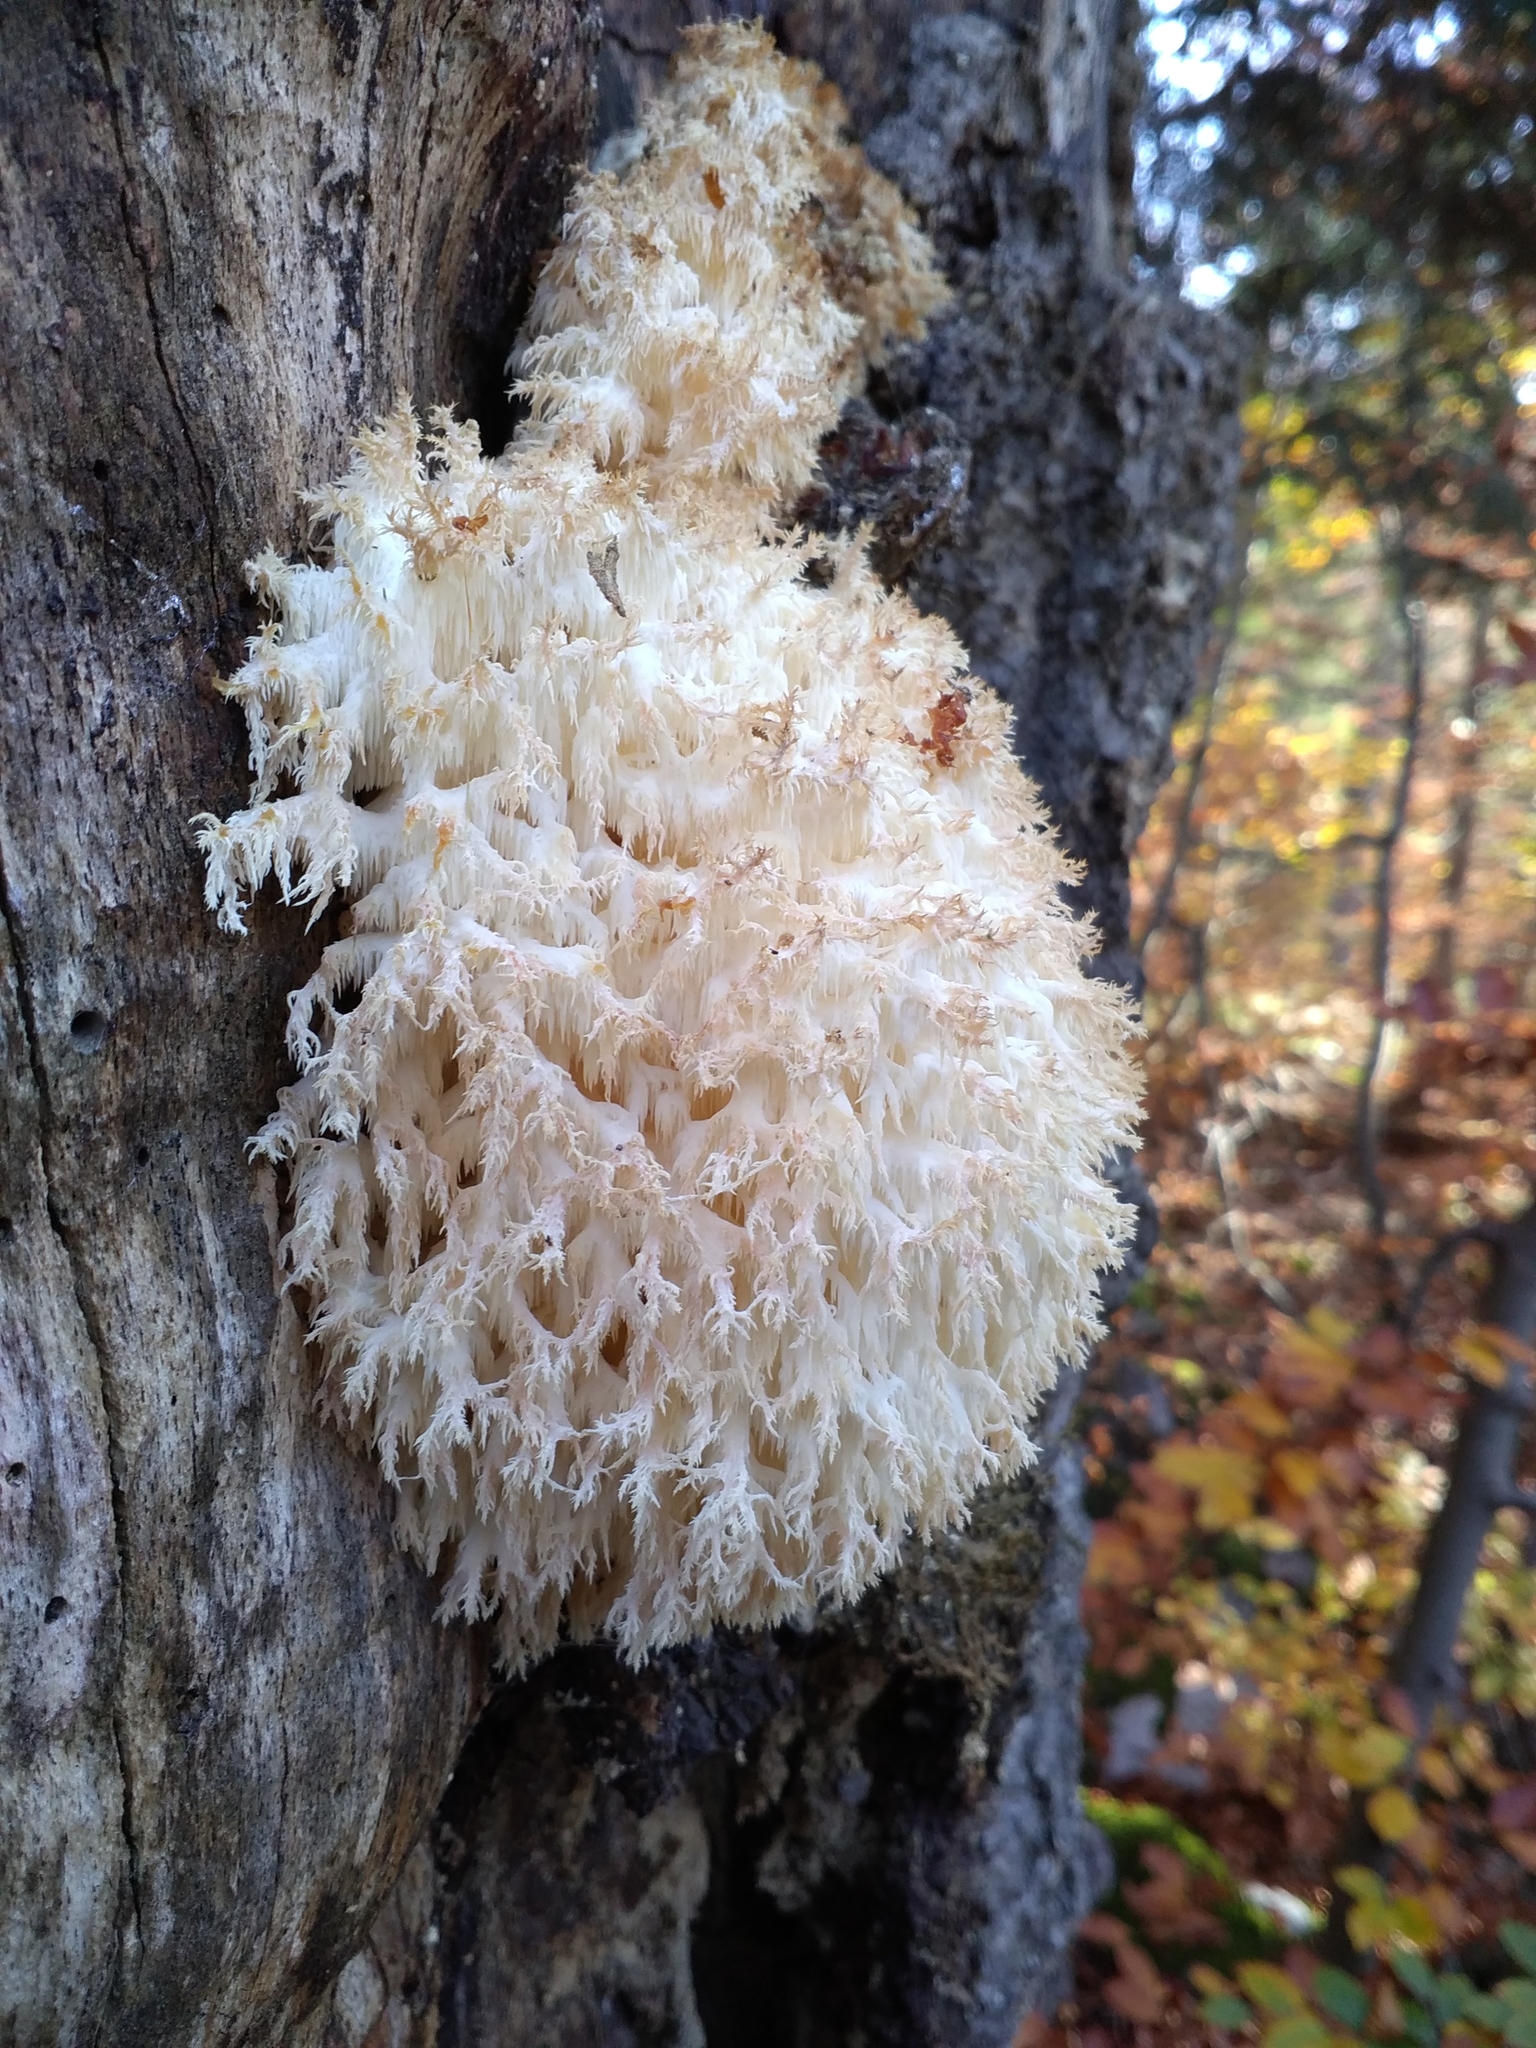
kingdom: Fungi
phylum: Basidiomycota
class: Agaricomycetes
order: Russulales
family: Hericiaceae
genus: Hericium
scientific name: Hericium coralloides
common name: Coral tooth
